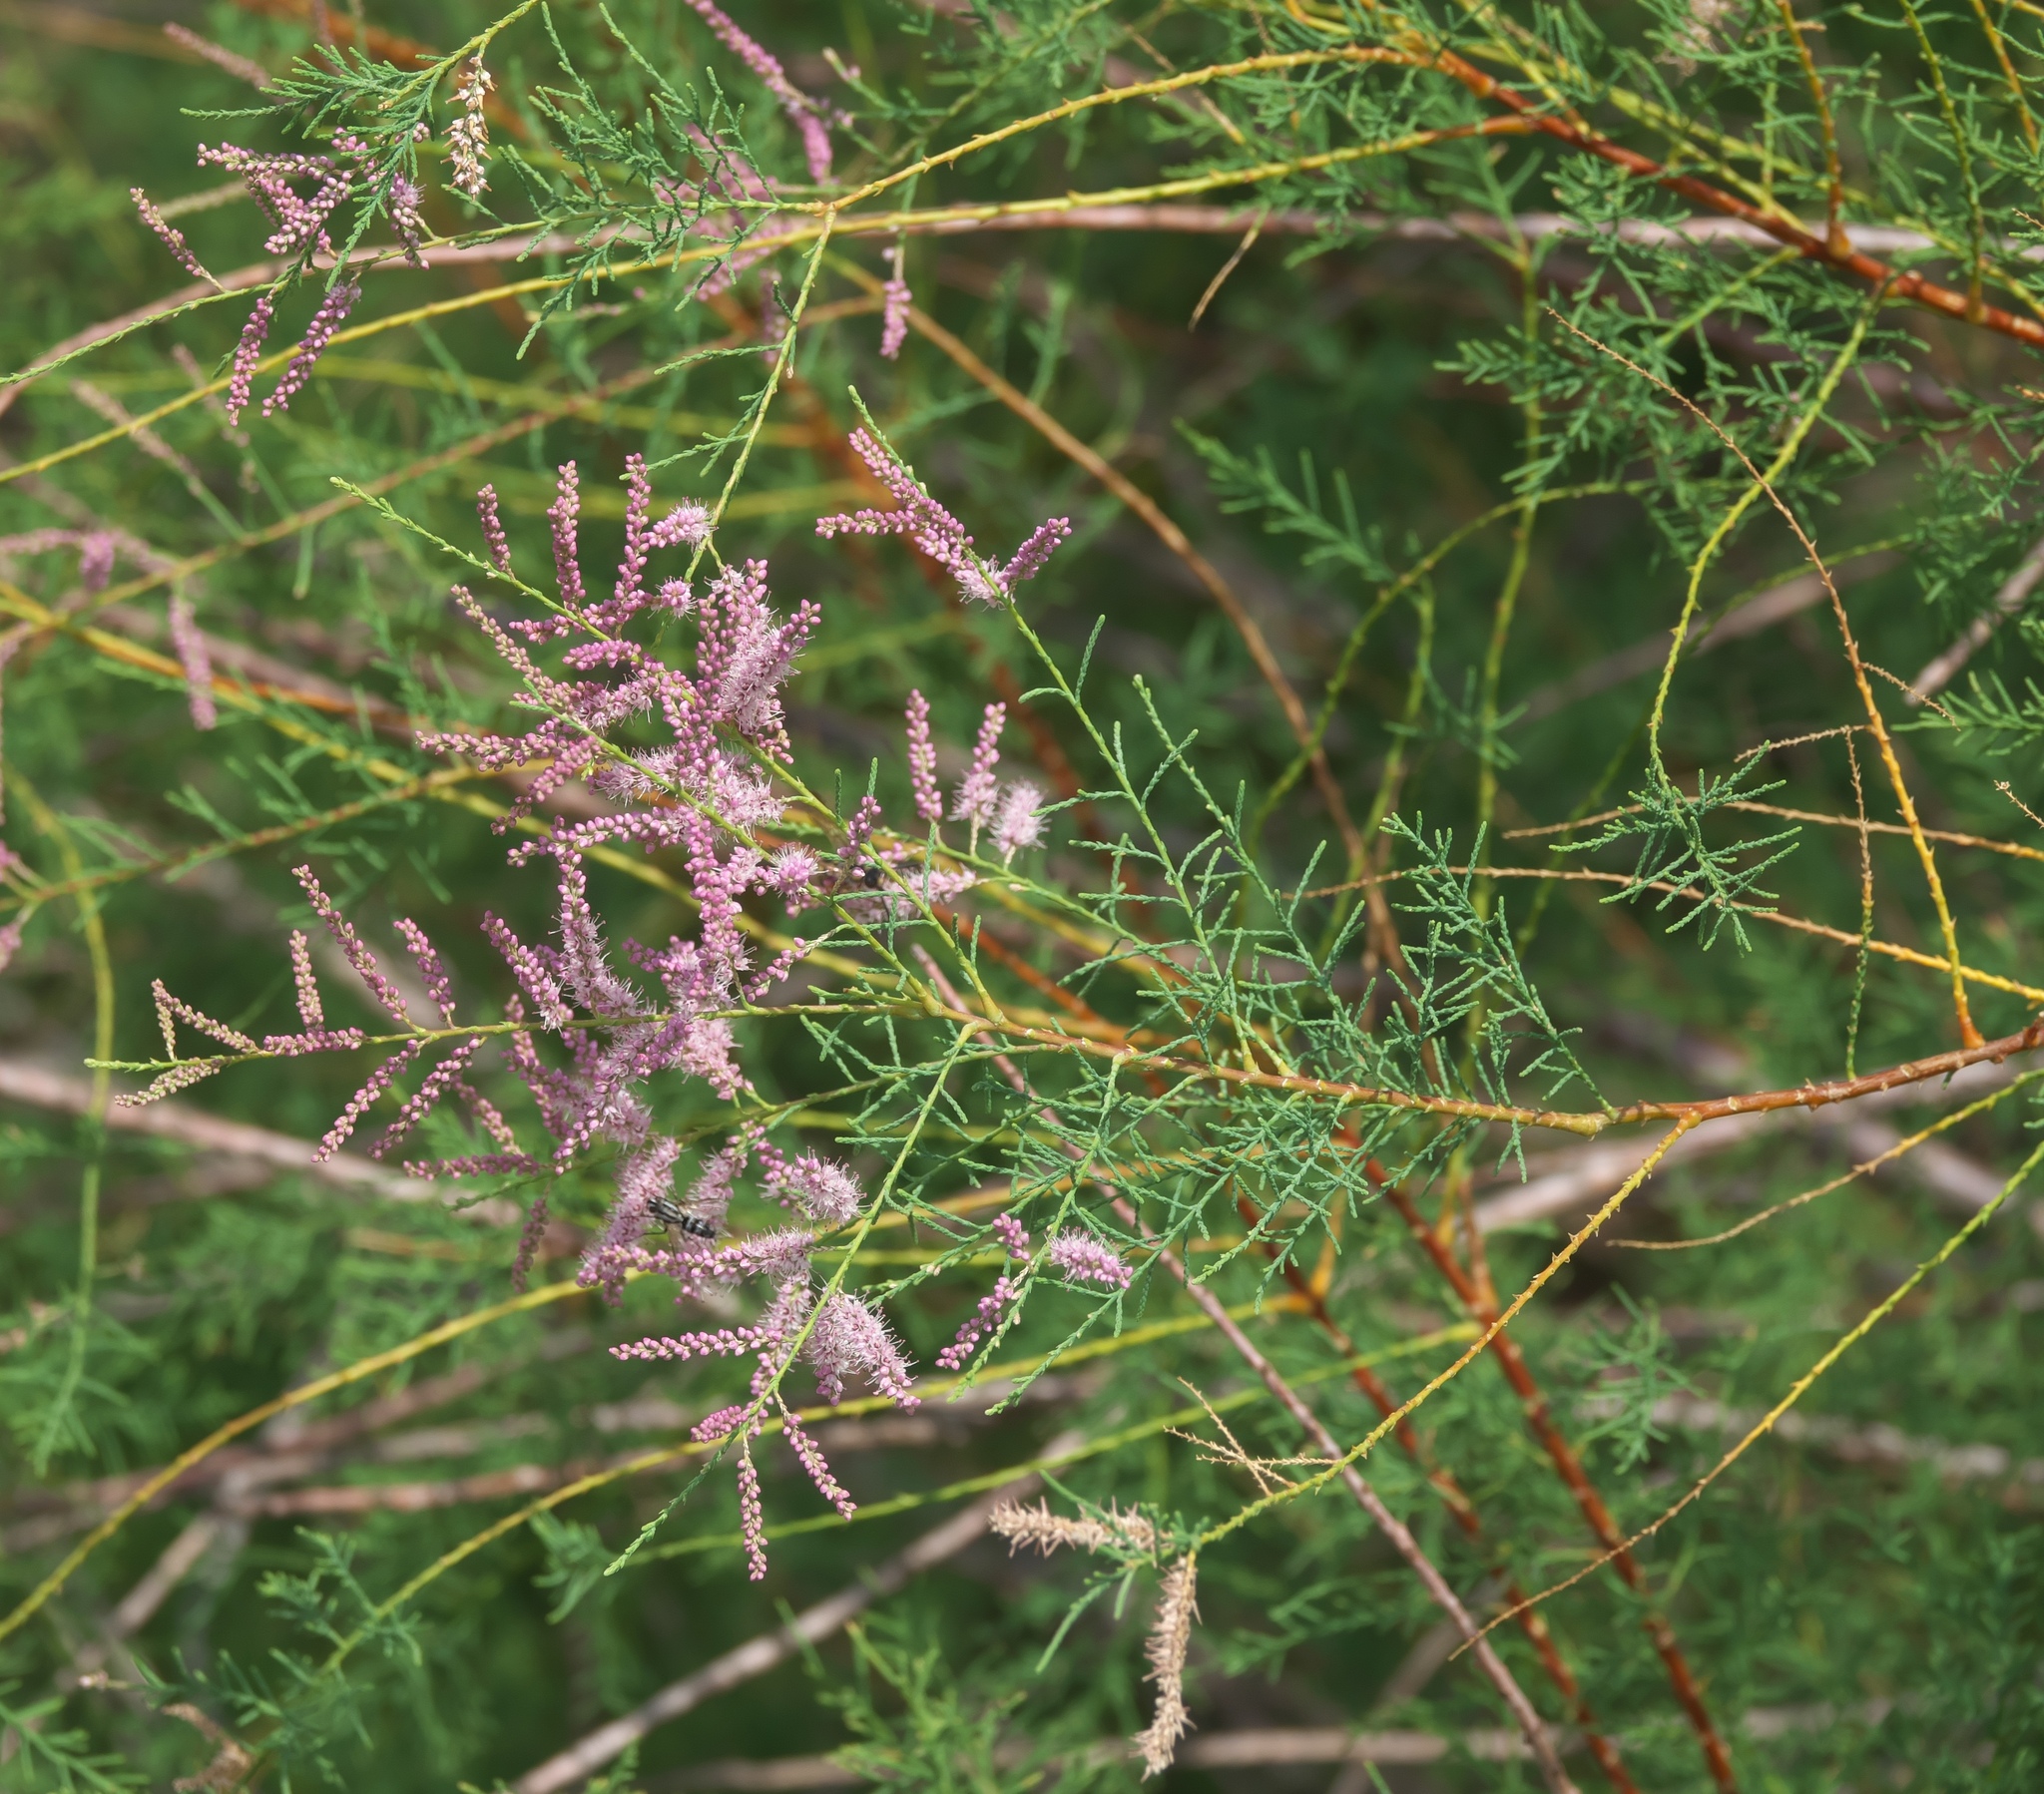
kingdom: Plantae
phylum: Tracheophyta
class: Magnoliopsida
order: Caryophyllales
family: Tamaricaceae
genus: Tamarix
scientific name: Tamarix ramosissima
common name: Pink tamarisk
